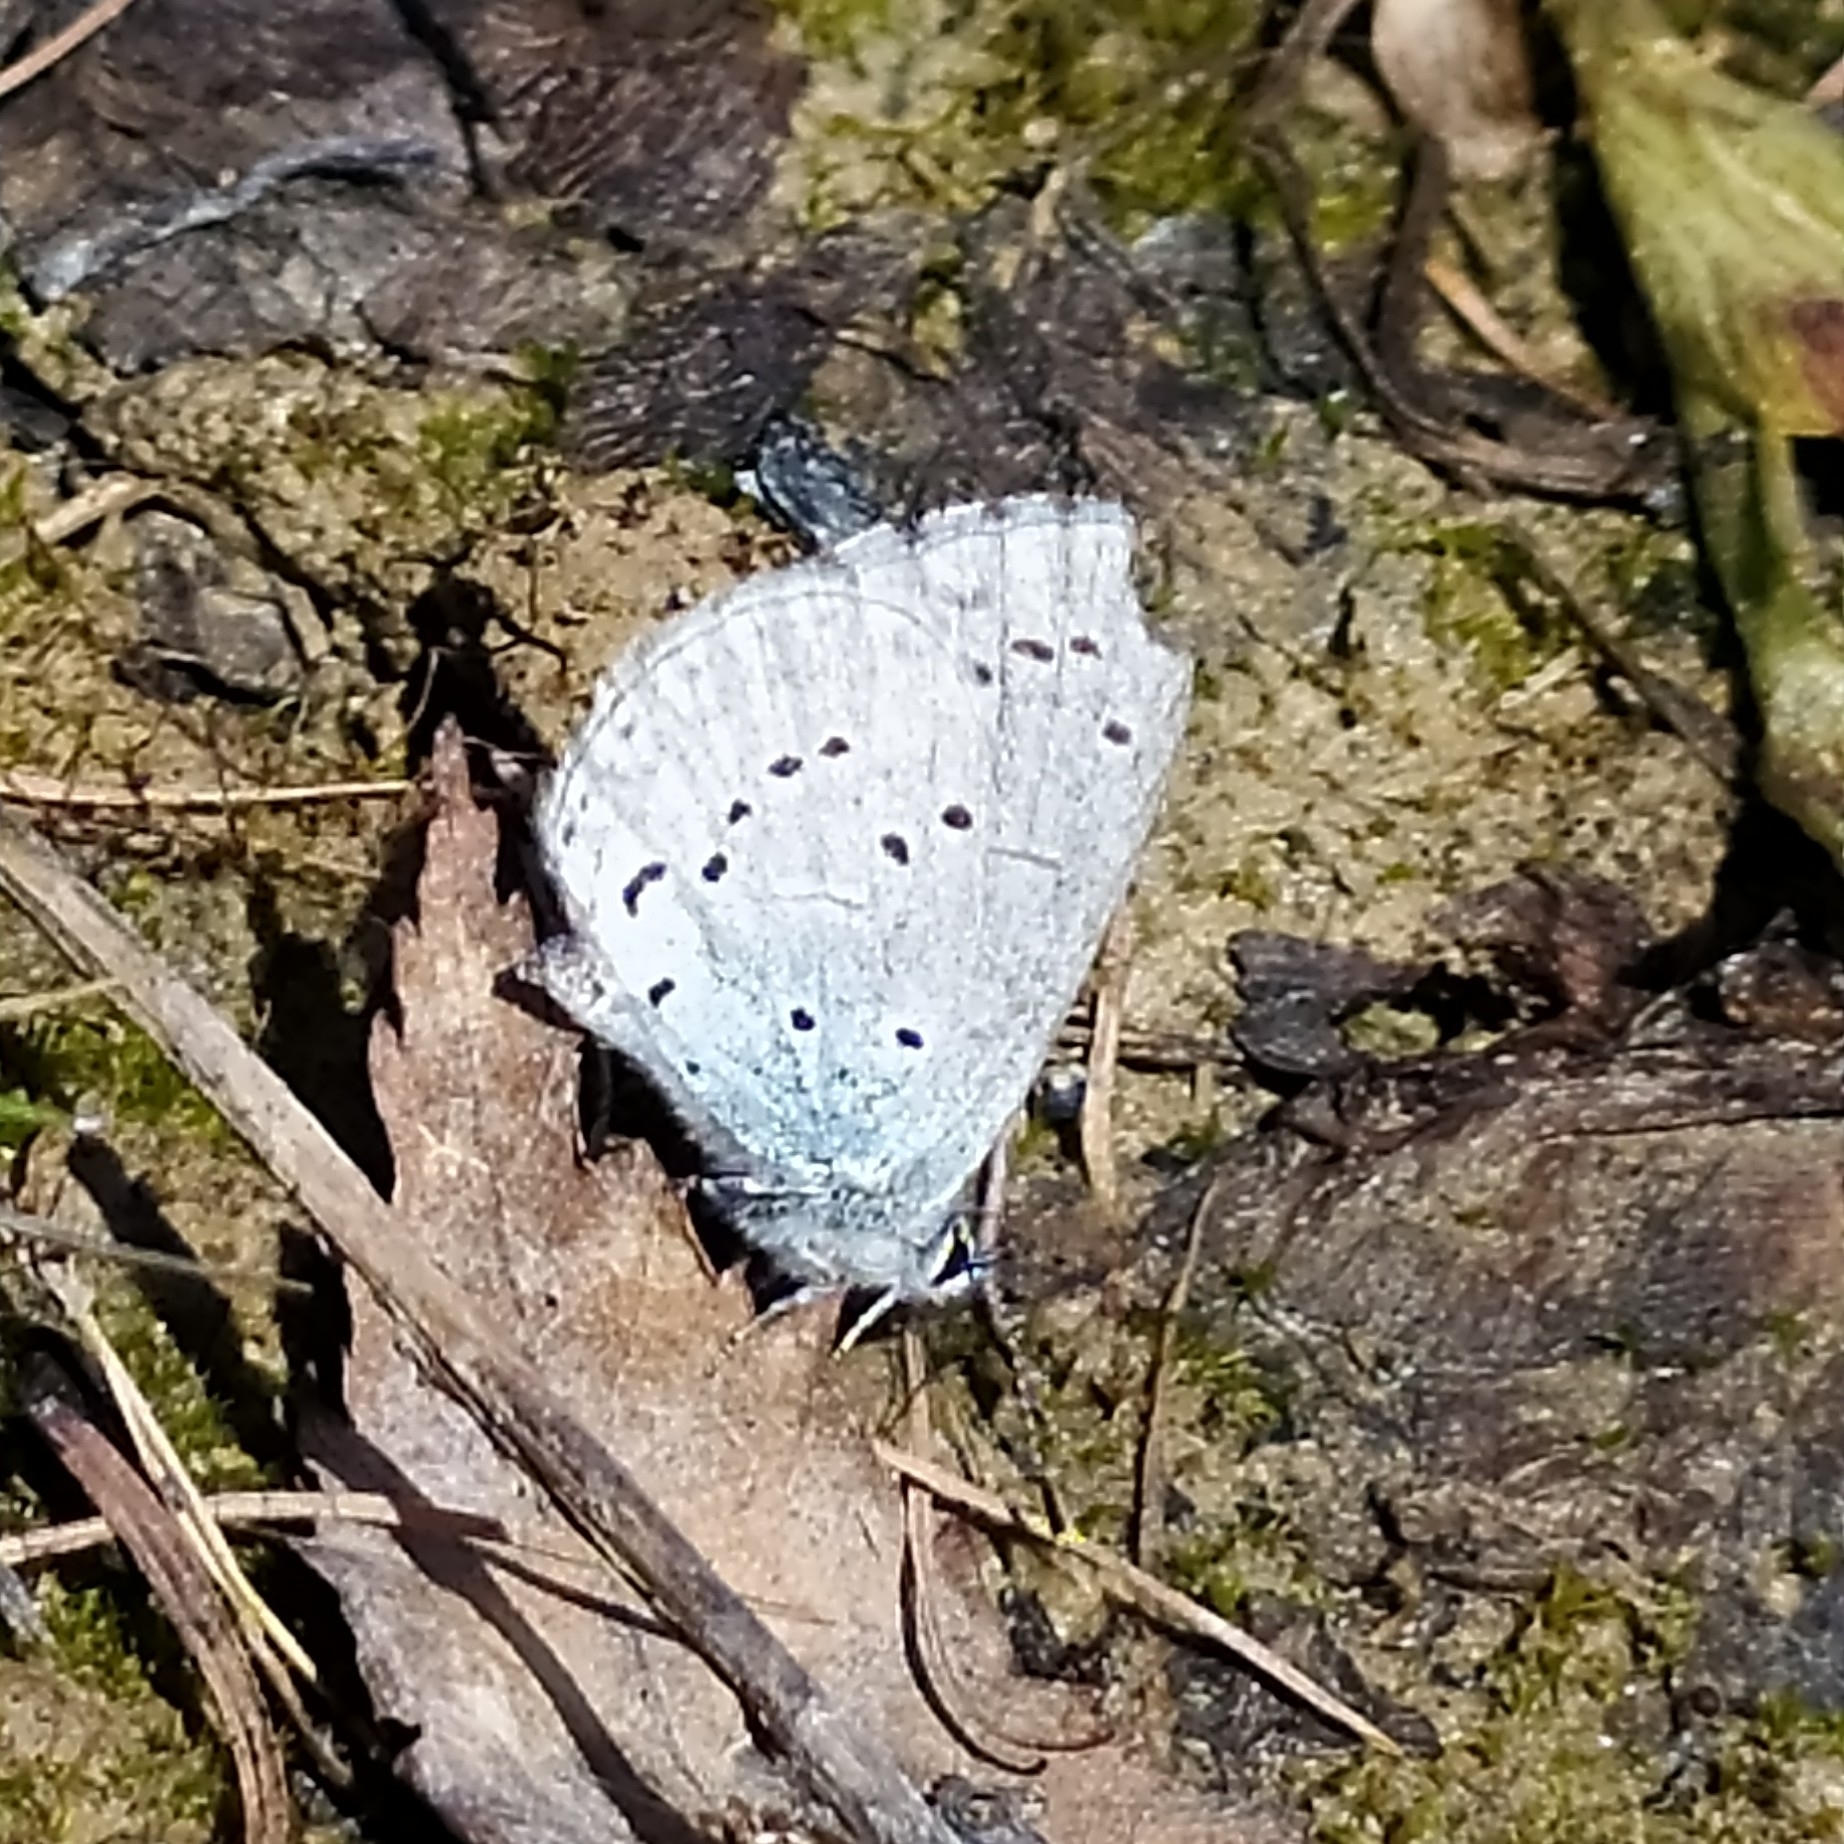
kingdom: Animalia
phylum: Arthropoda
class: Insecta
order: Lepidoptera
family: Lycaenidae
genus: Celastrina
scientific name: Celastrina argiolus
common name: Holly blue
